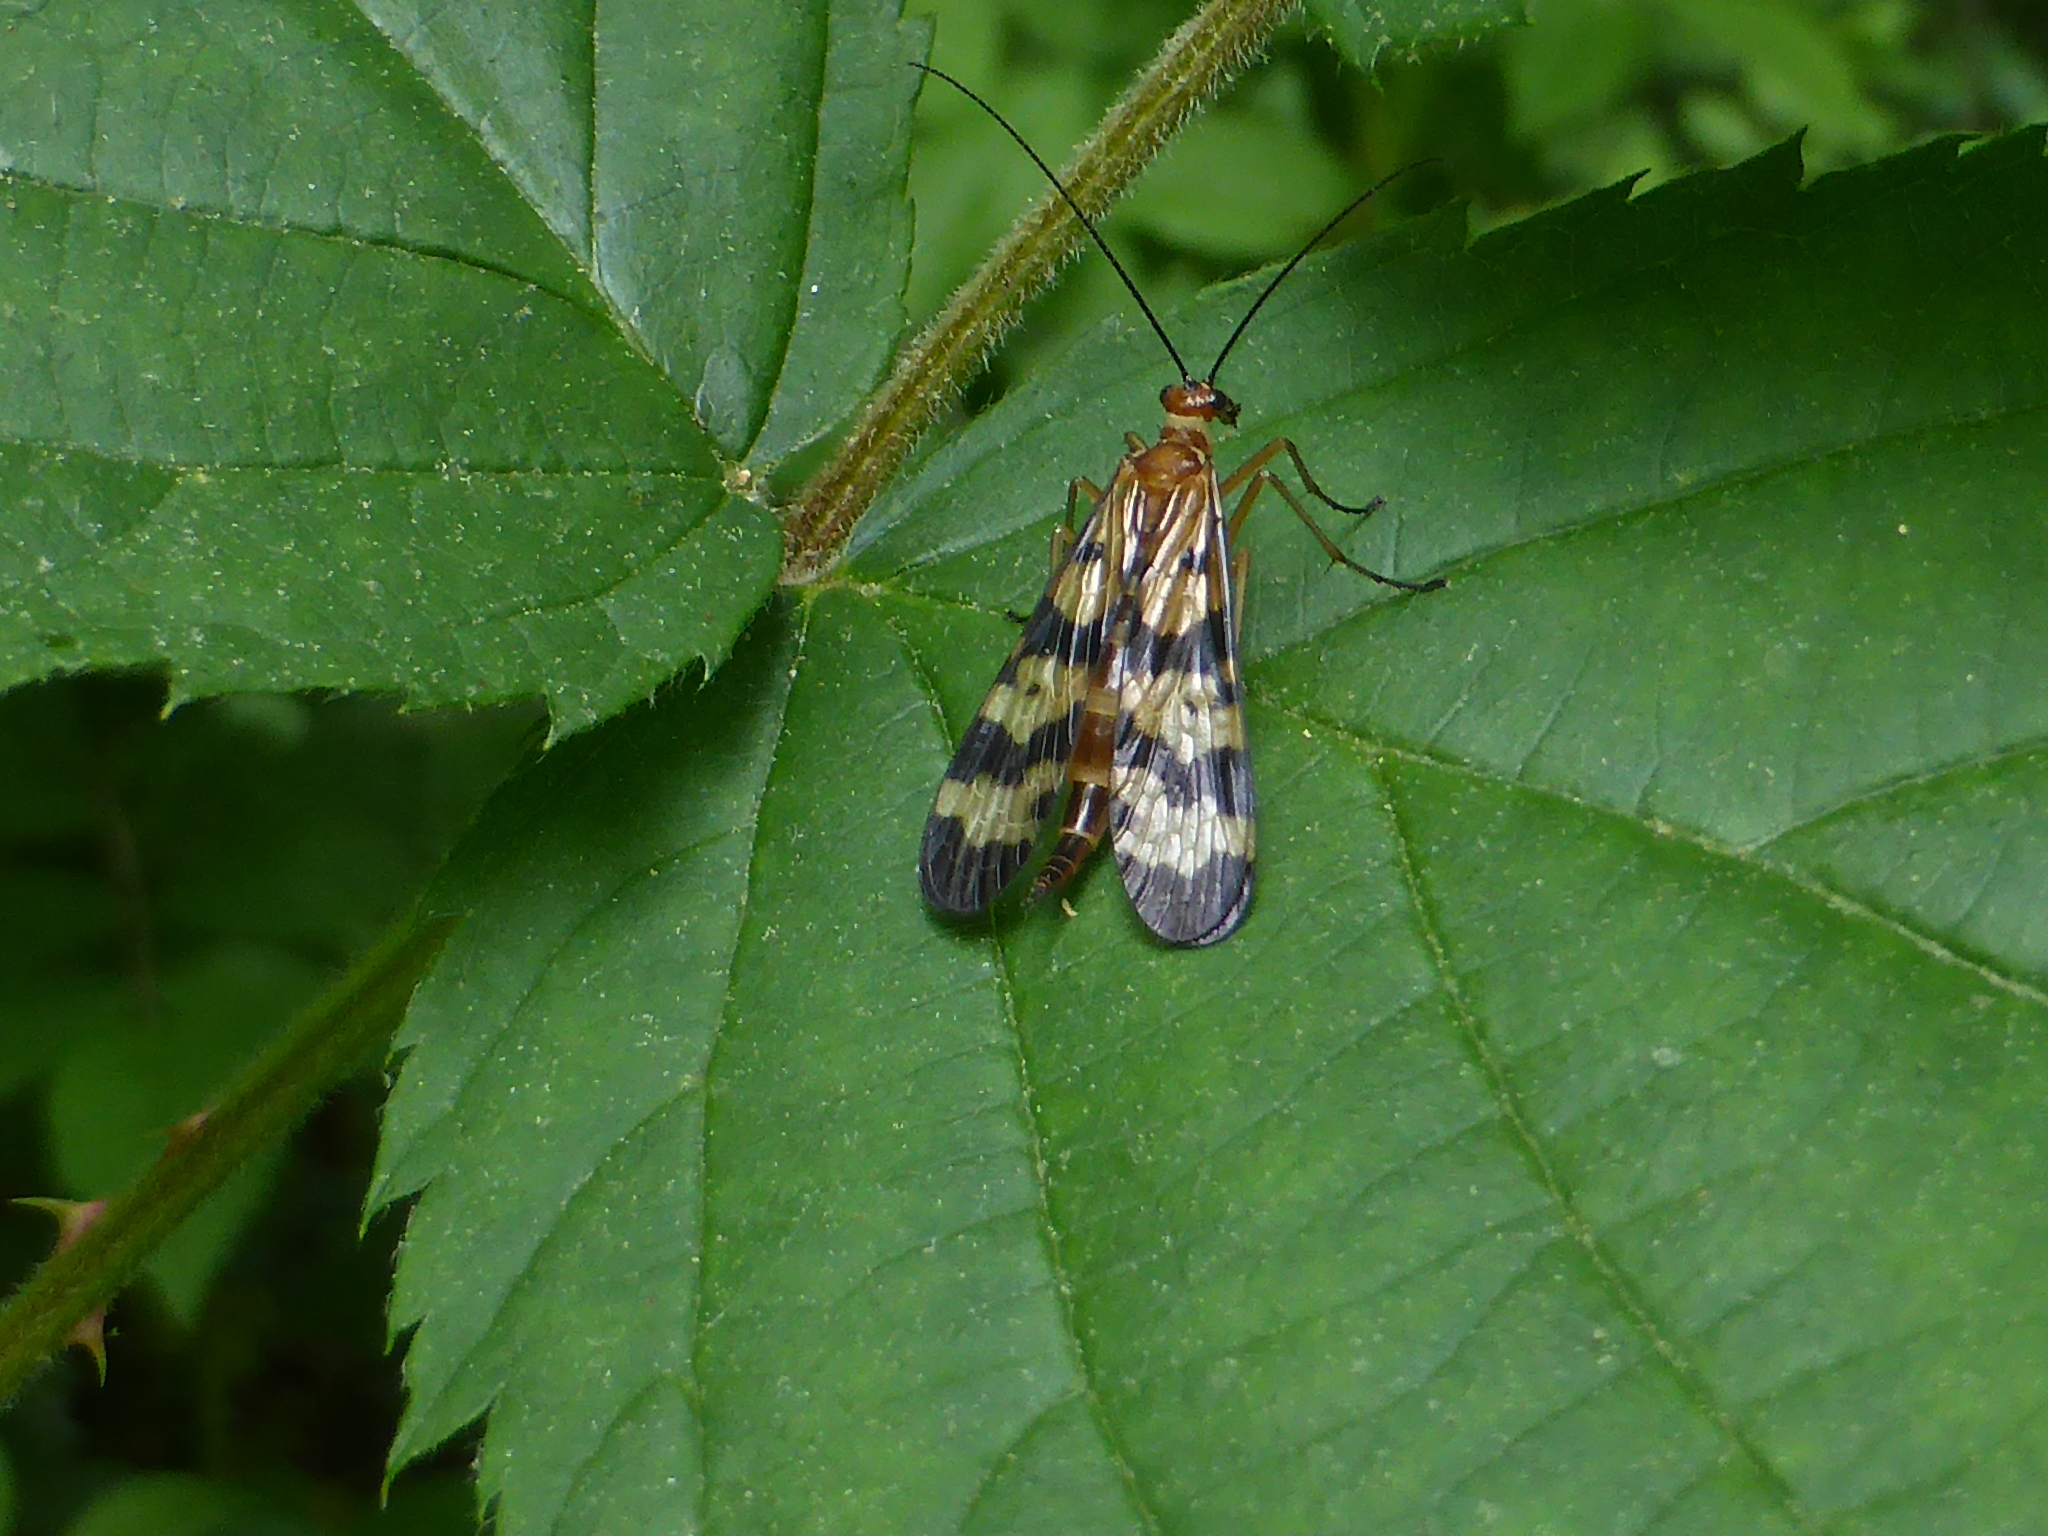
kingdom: Animalia
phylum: Arthropoda
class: Insecta
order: Mecoptera
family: Panorpidae
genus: Panorpa
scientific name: Panorpa galerita
